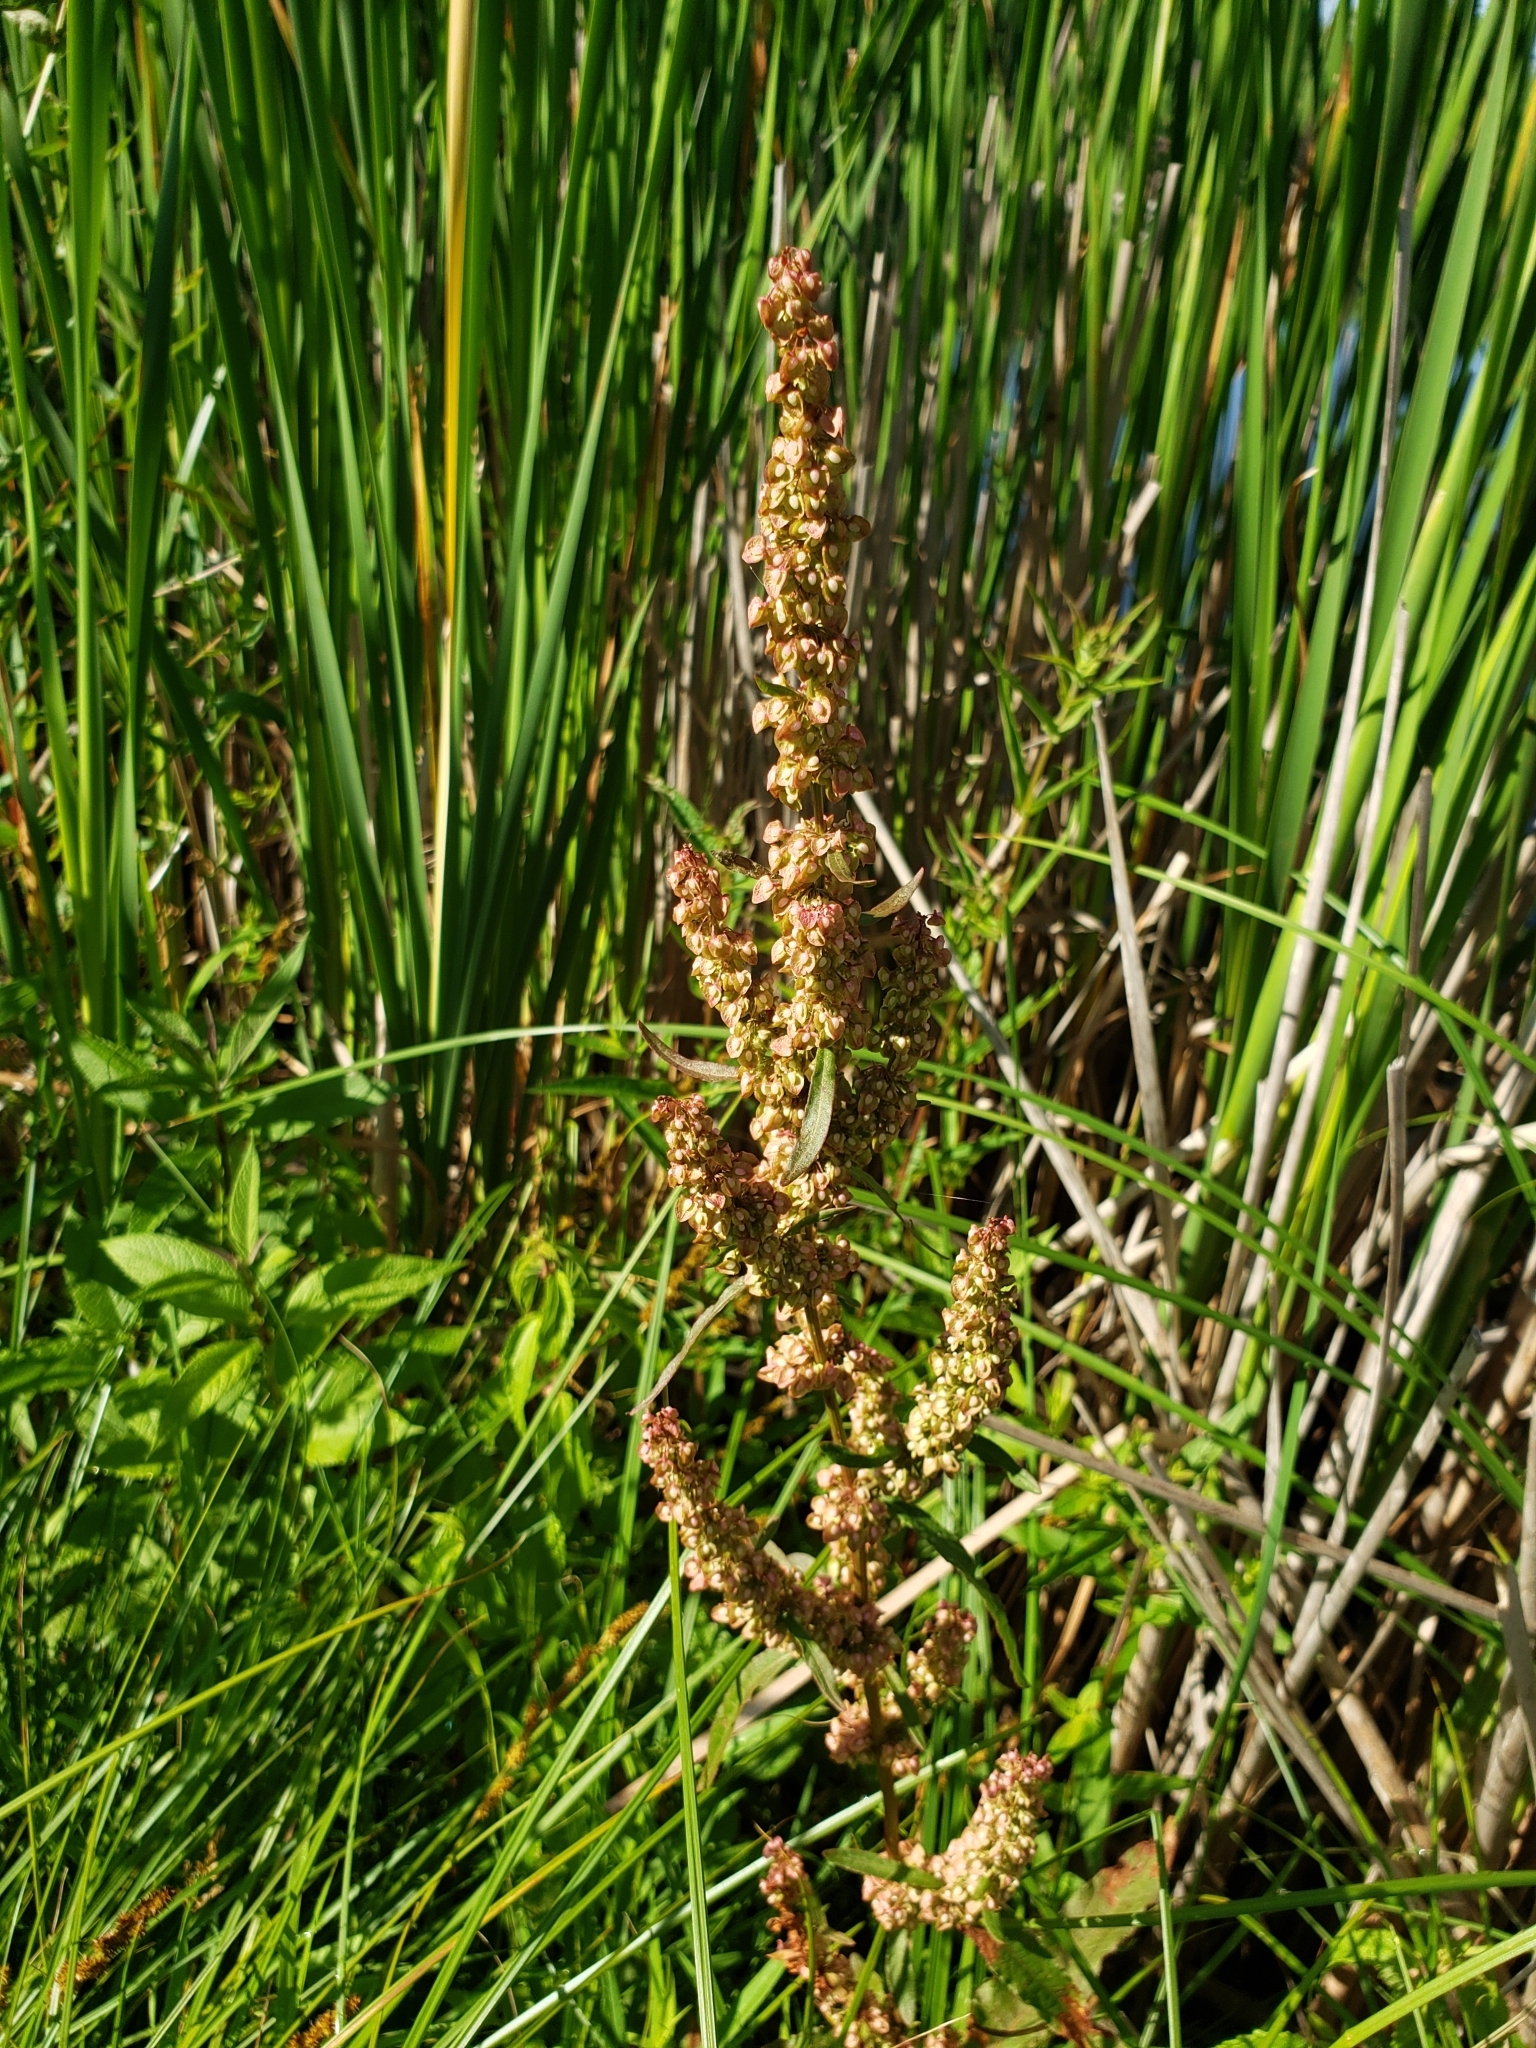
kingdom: Plantae
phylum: Tracheophyta
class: Magnoliopsida
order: Caryophyllales
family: Polygonaceae
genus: Rumex
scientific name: Rumex crispus
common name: Curled dock
